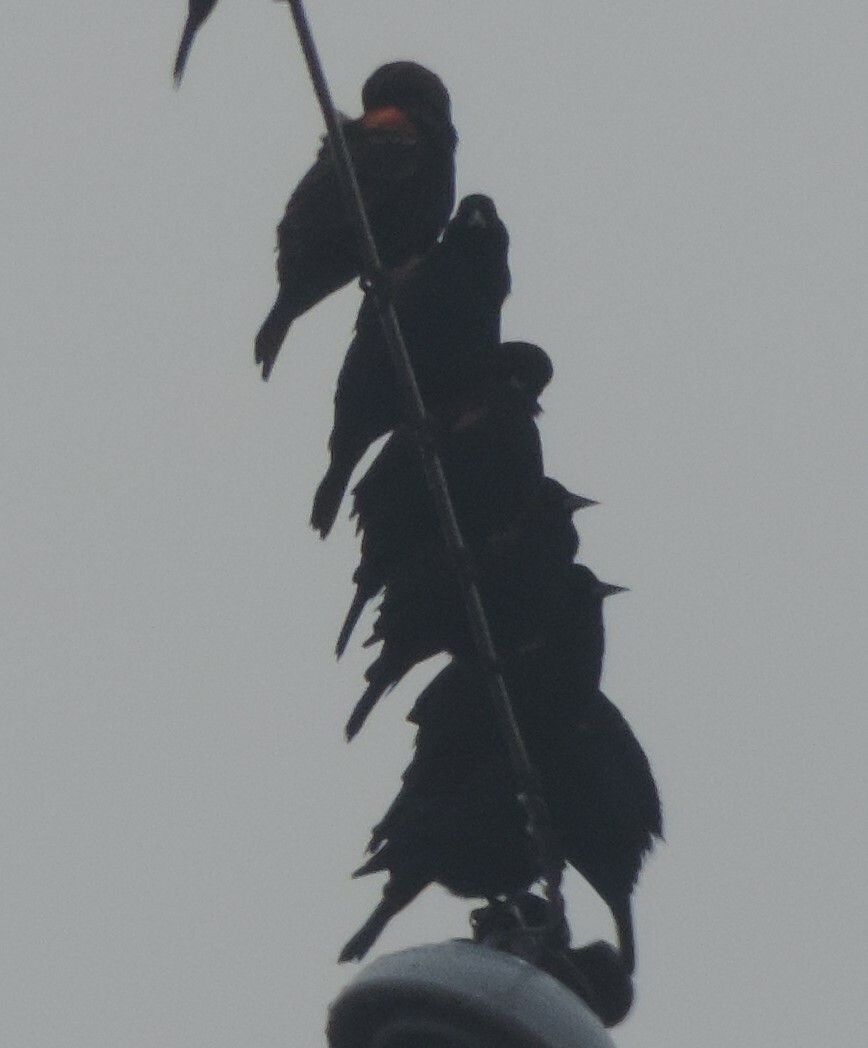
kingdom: Animalia
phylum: Chordata
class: Aves
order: Passeriformes
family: Icteridae
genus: Agelaius
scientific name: Agelaius phoeniceus
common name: Red-winged blackbird
